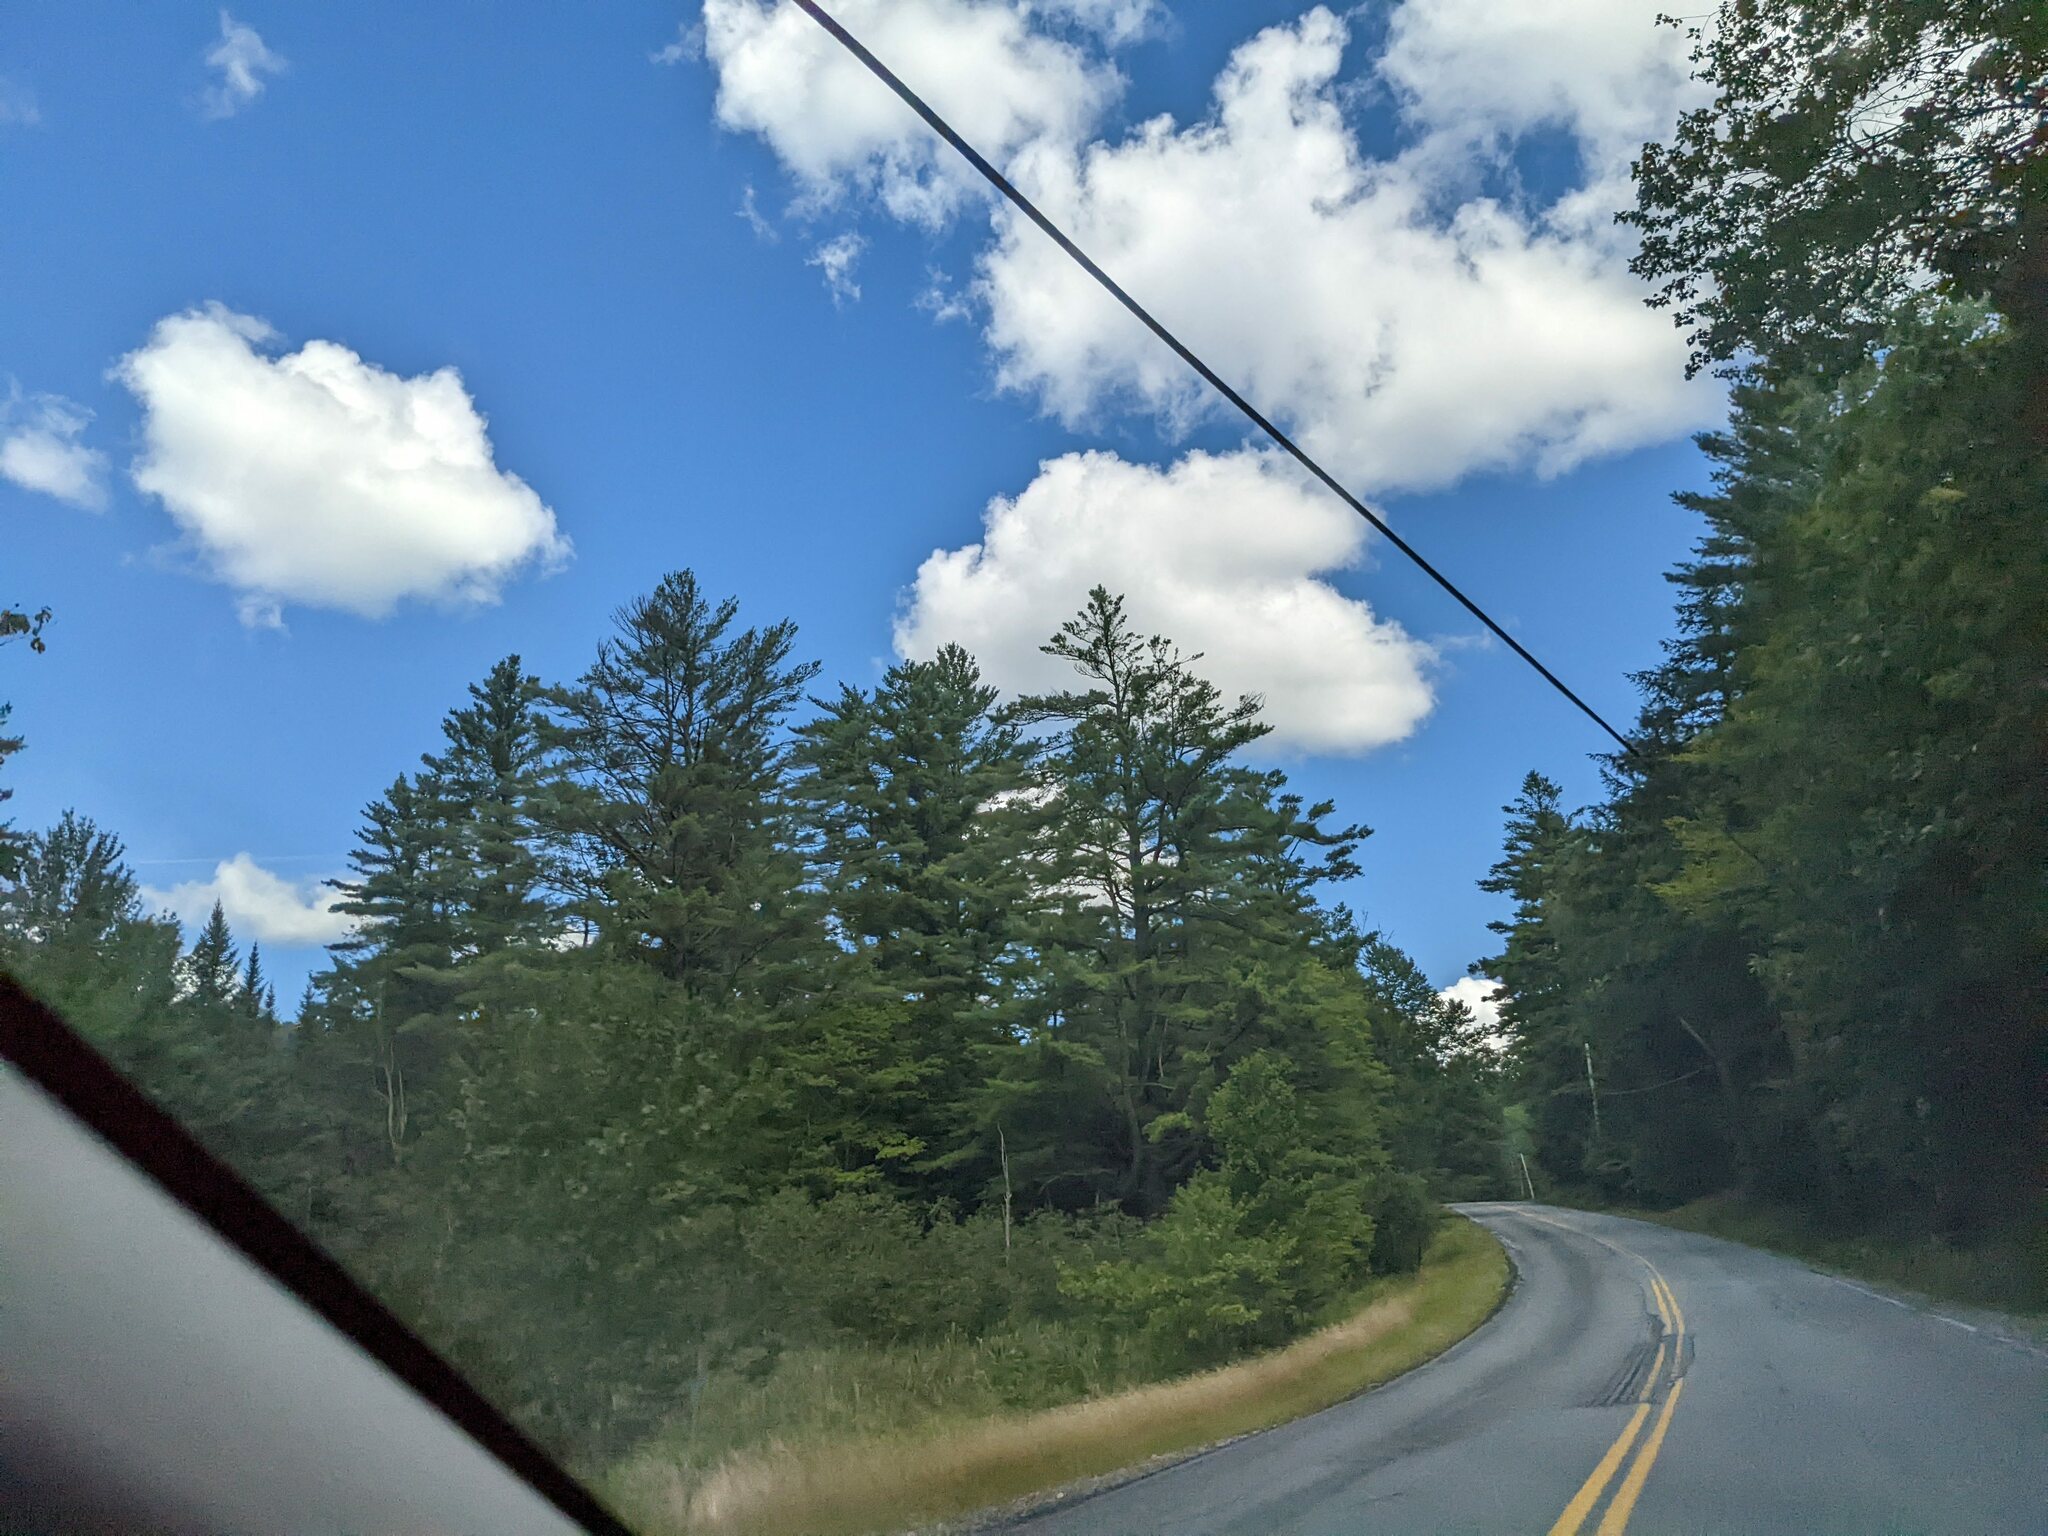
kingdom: Plantae
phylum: Tracheophyta
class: Pinopsida
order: Pinales
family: Pinaceae
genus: Pinus
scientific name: Pinus strobus
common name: Weymouth pine
